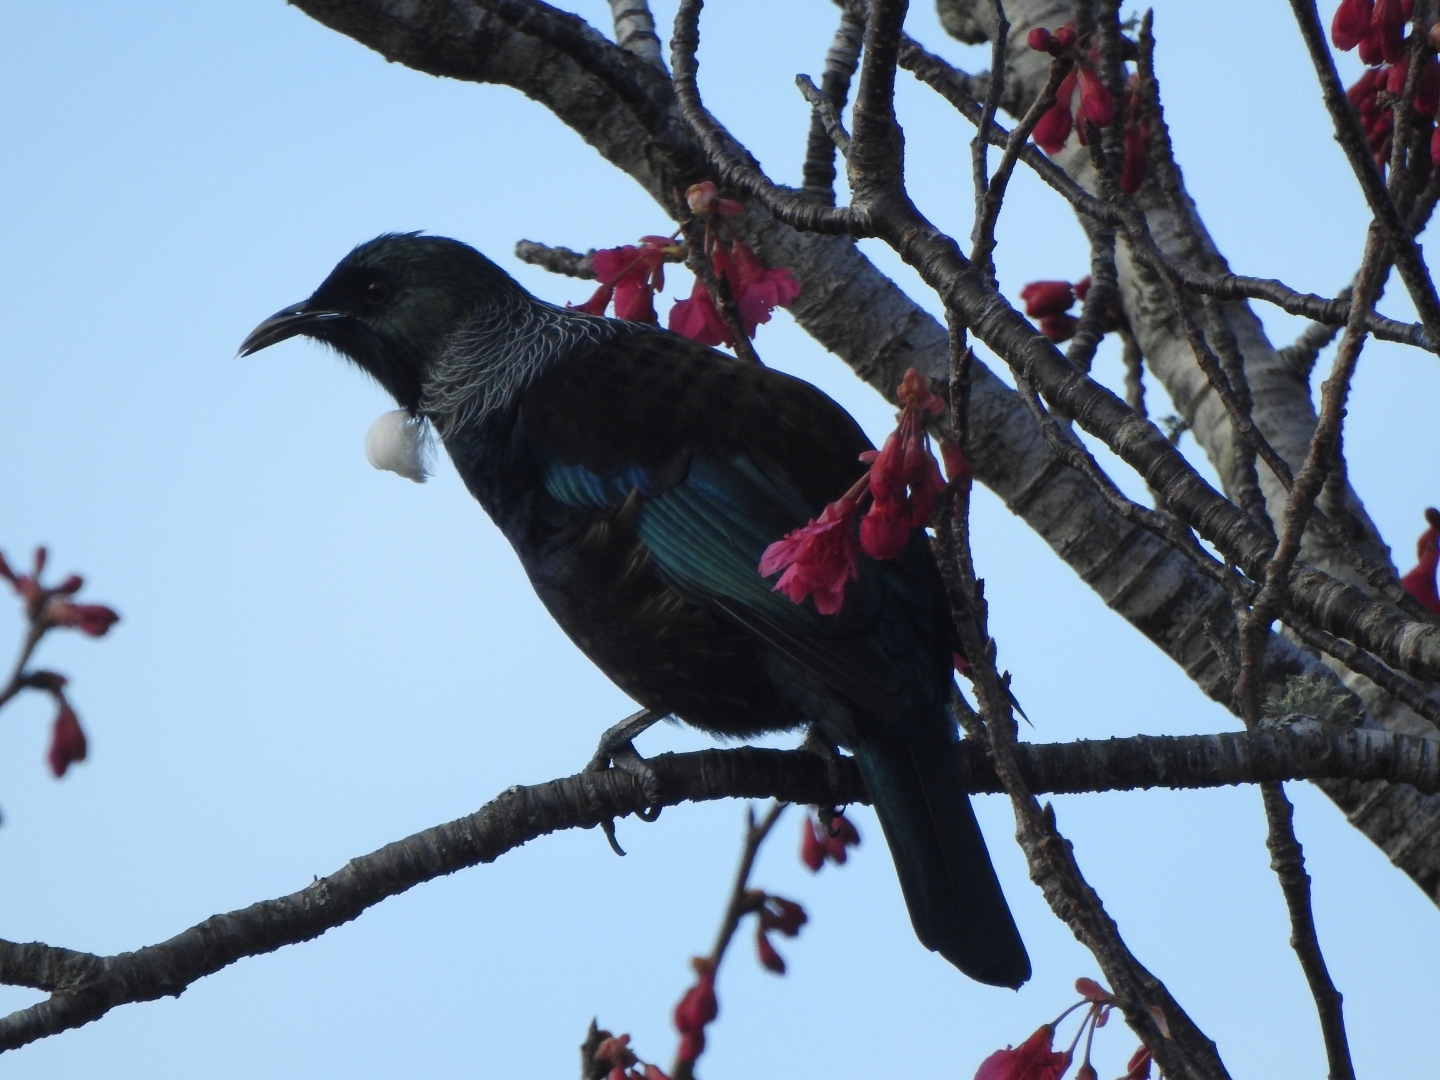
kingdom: Animalia
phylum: Chordata
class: Aves
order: Passeriformes
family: Meliphagidae
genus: Prosthemadera
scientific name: Prosthemadera novaeseelandiae
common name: Tui
